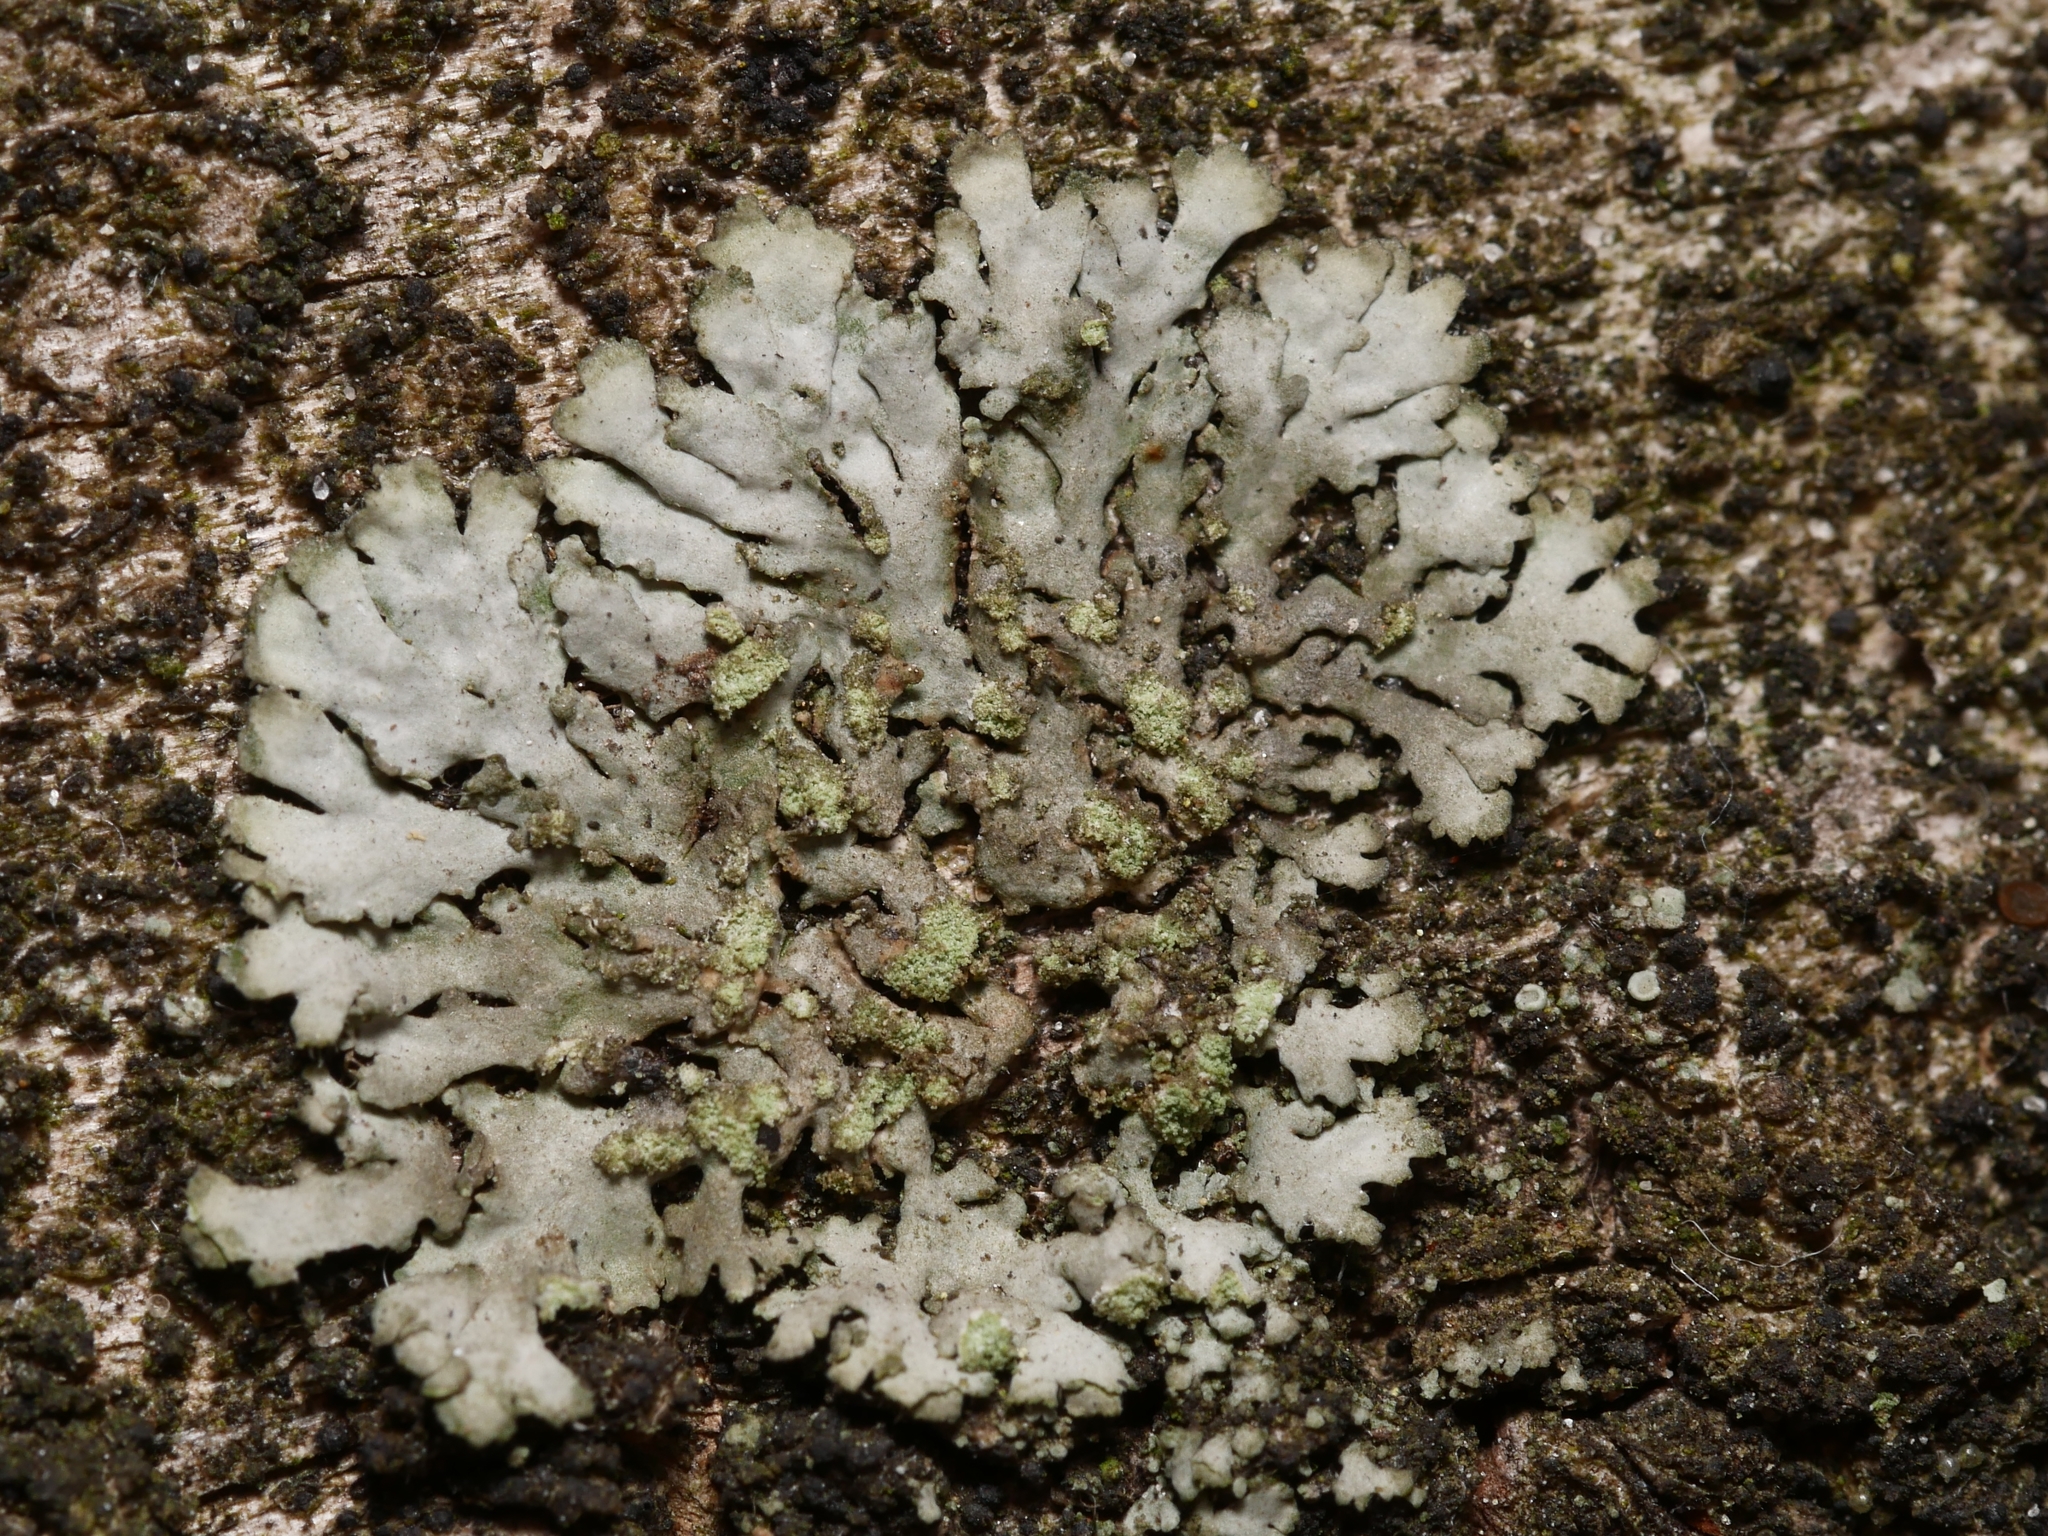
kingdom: Fungi
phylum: Ascomycota
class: Lecanoromycetes
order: Caliciales
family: Physciaceae
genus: Phaeophyscia
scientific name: Phaeophyscia orbicularis
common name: Mealy shadow lichen
